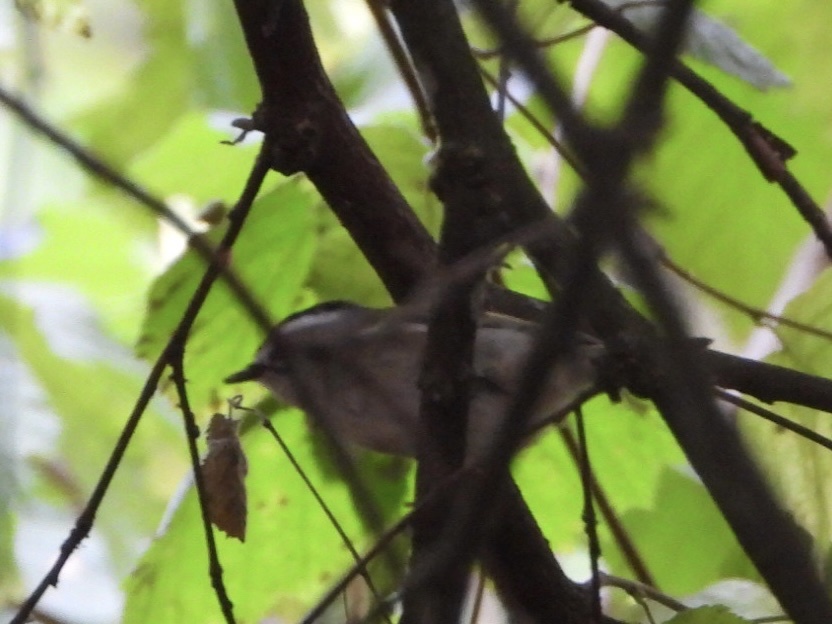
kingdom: Animalia
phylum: Chordata
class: Aves
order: Passeriformes
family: Regulidae
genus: Regulus
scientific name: Regulus satrapa
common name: Golden-crowned kinglet
